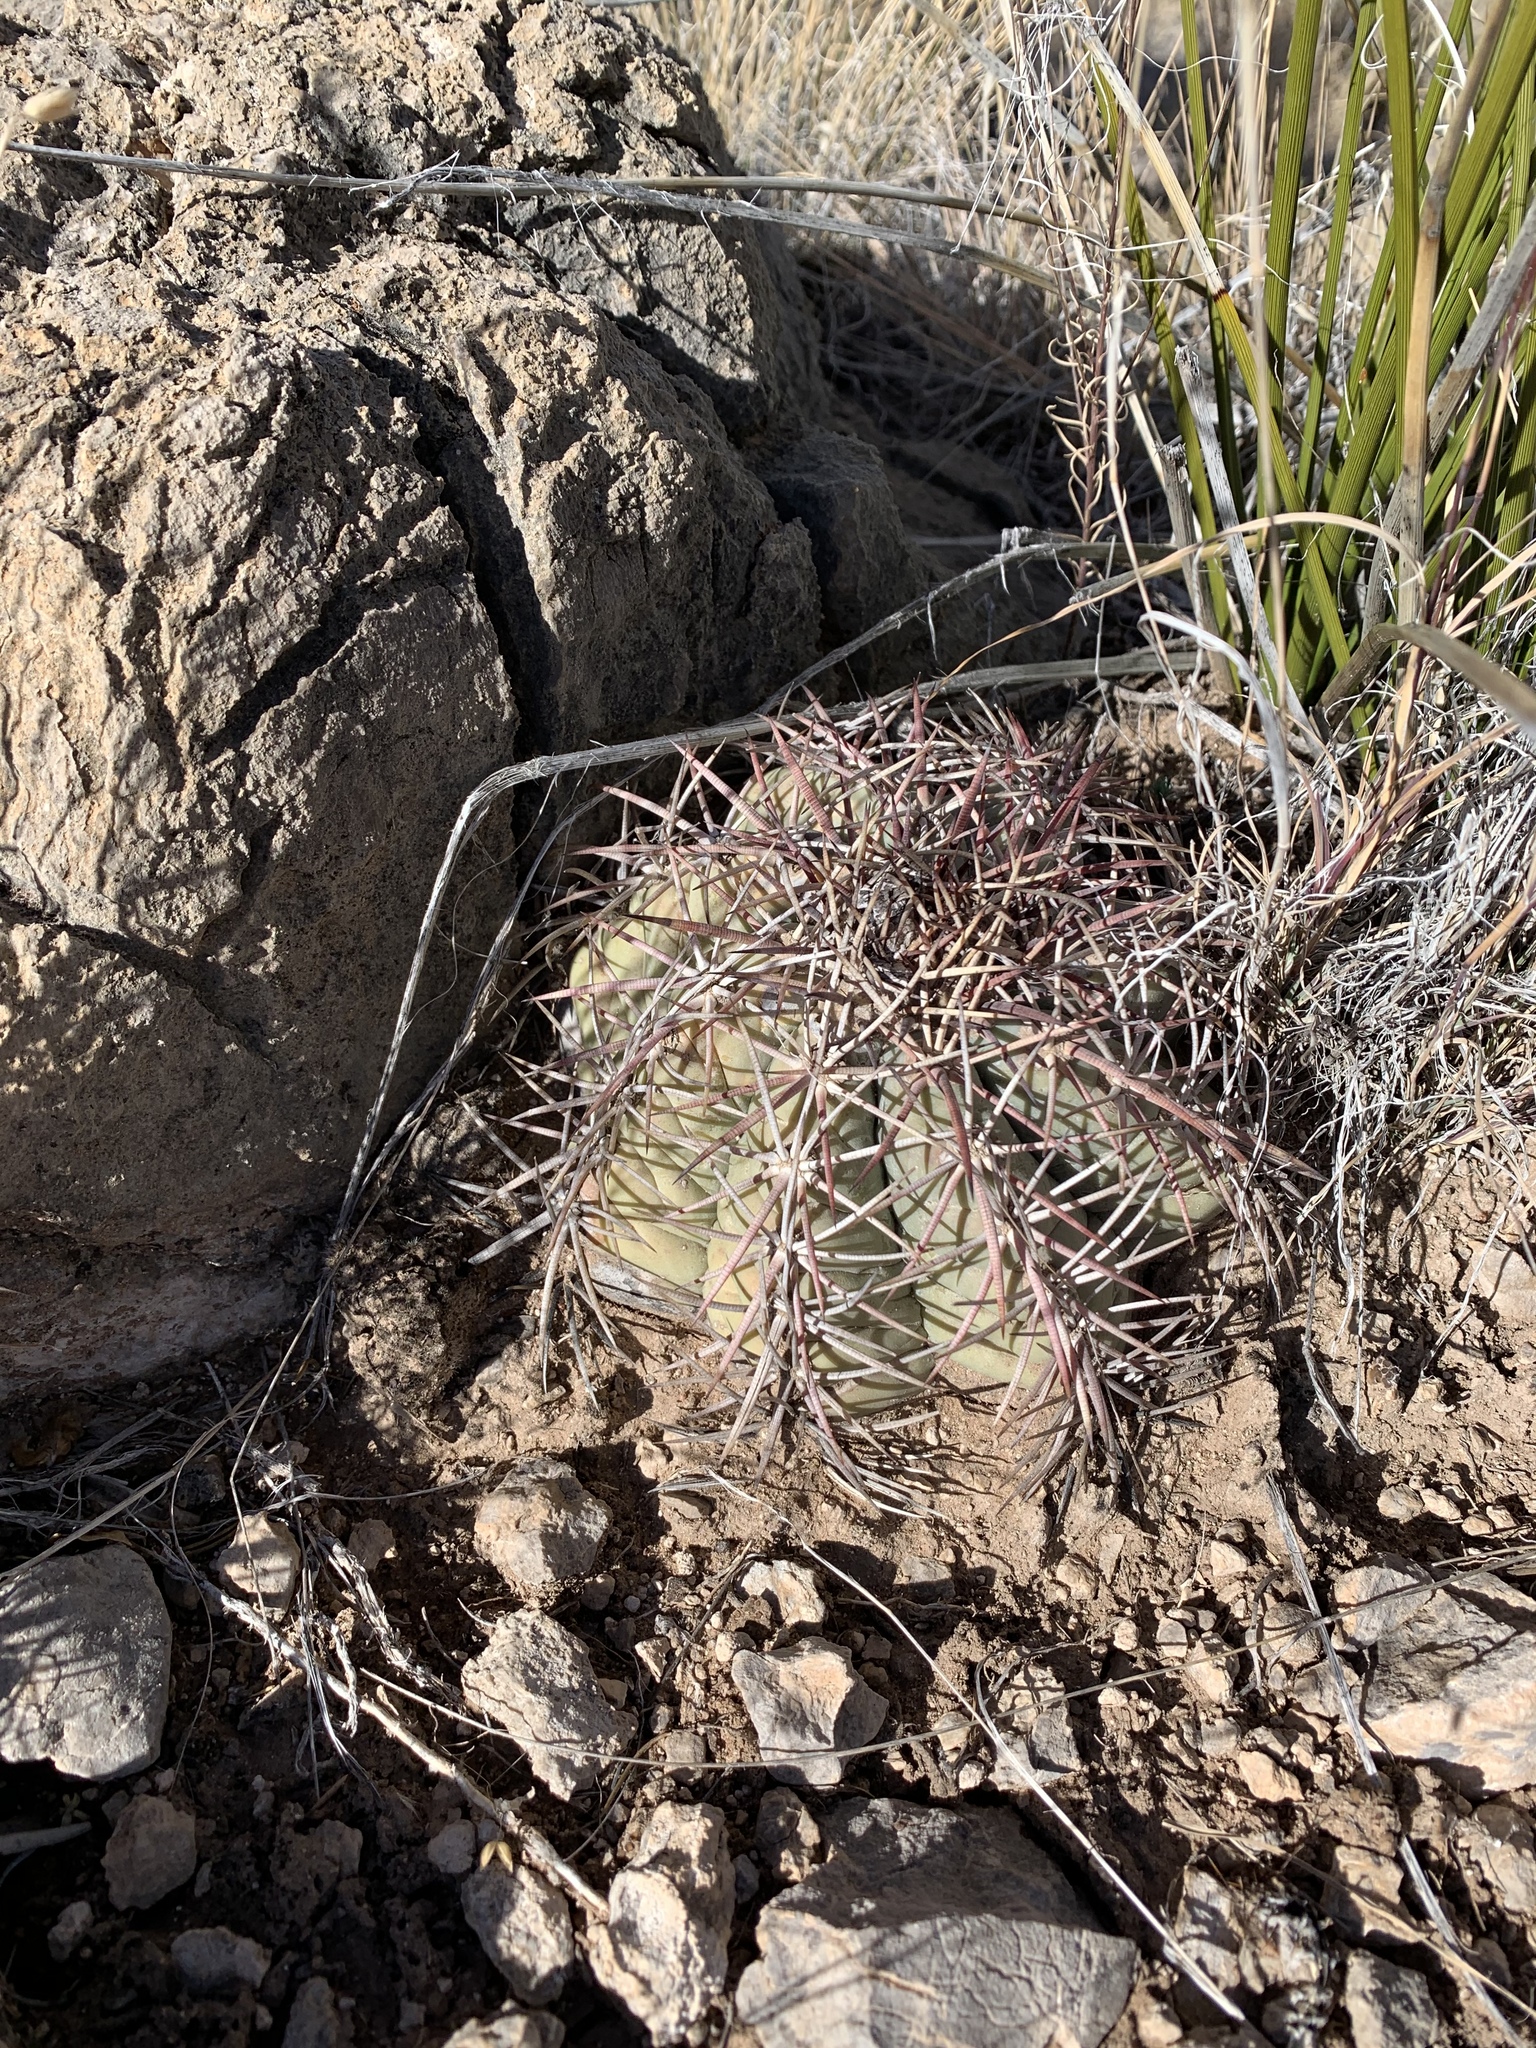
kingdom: Plantae
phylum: Tracheophyta
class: Magnoliopsida
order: Caryophyllales
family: Cactaceae
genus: Echinocactus
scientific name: Echinocactus horizonthalonius
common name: Devilshead
